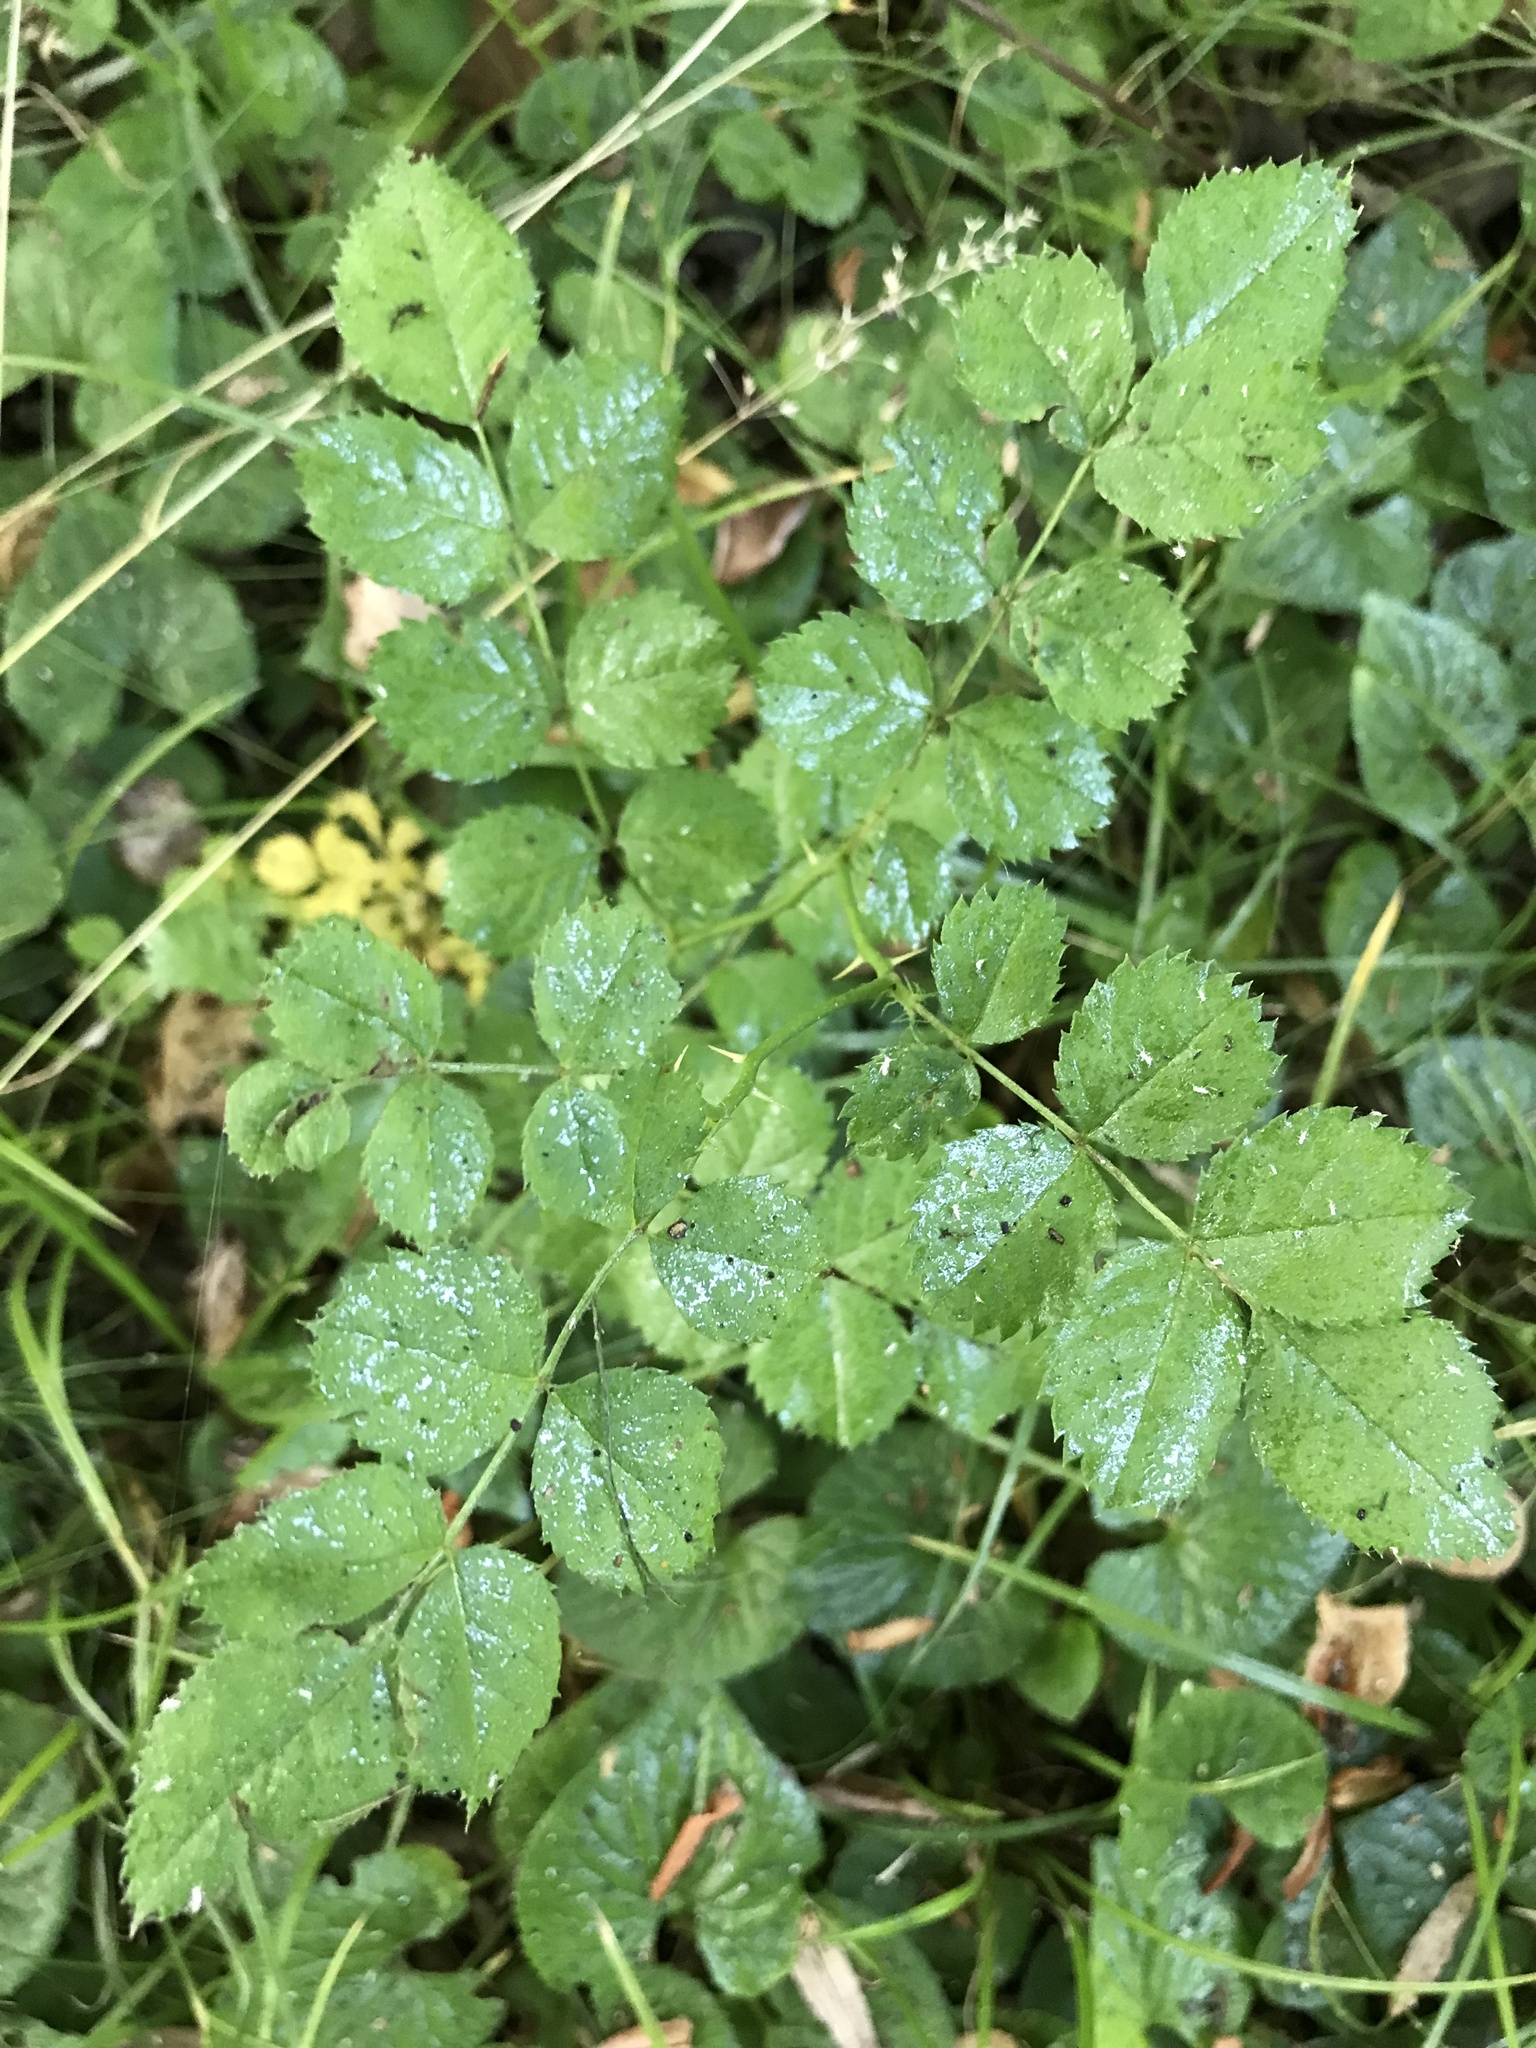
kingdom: Plantae
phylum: Tracheophyta
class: Magnoliopsida
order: Rosales
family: Rosaceae
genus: Rosa
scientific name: Rosa multiflora
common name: Multiflora rose
